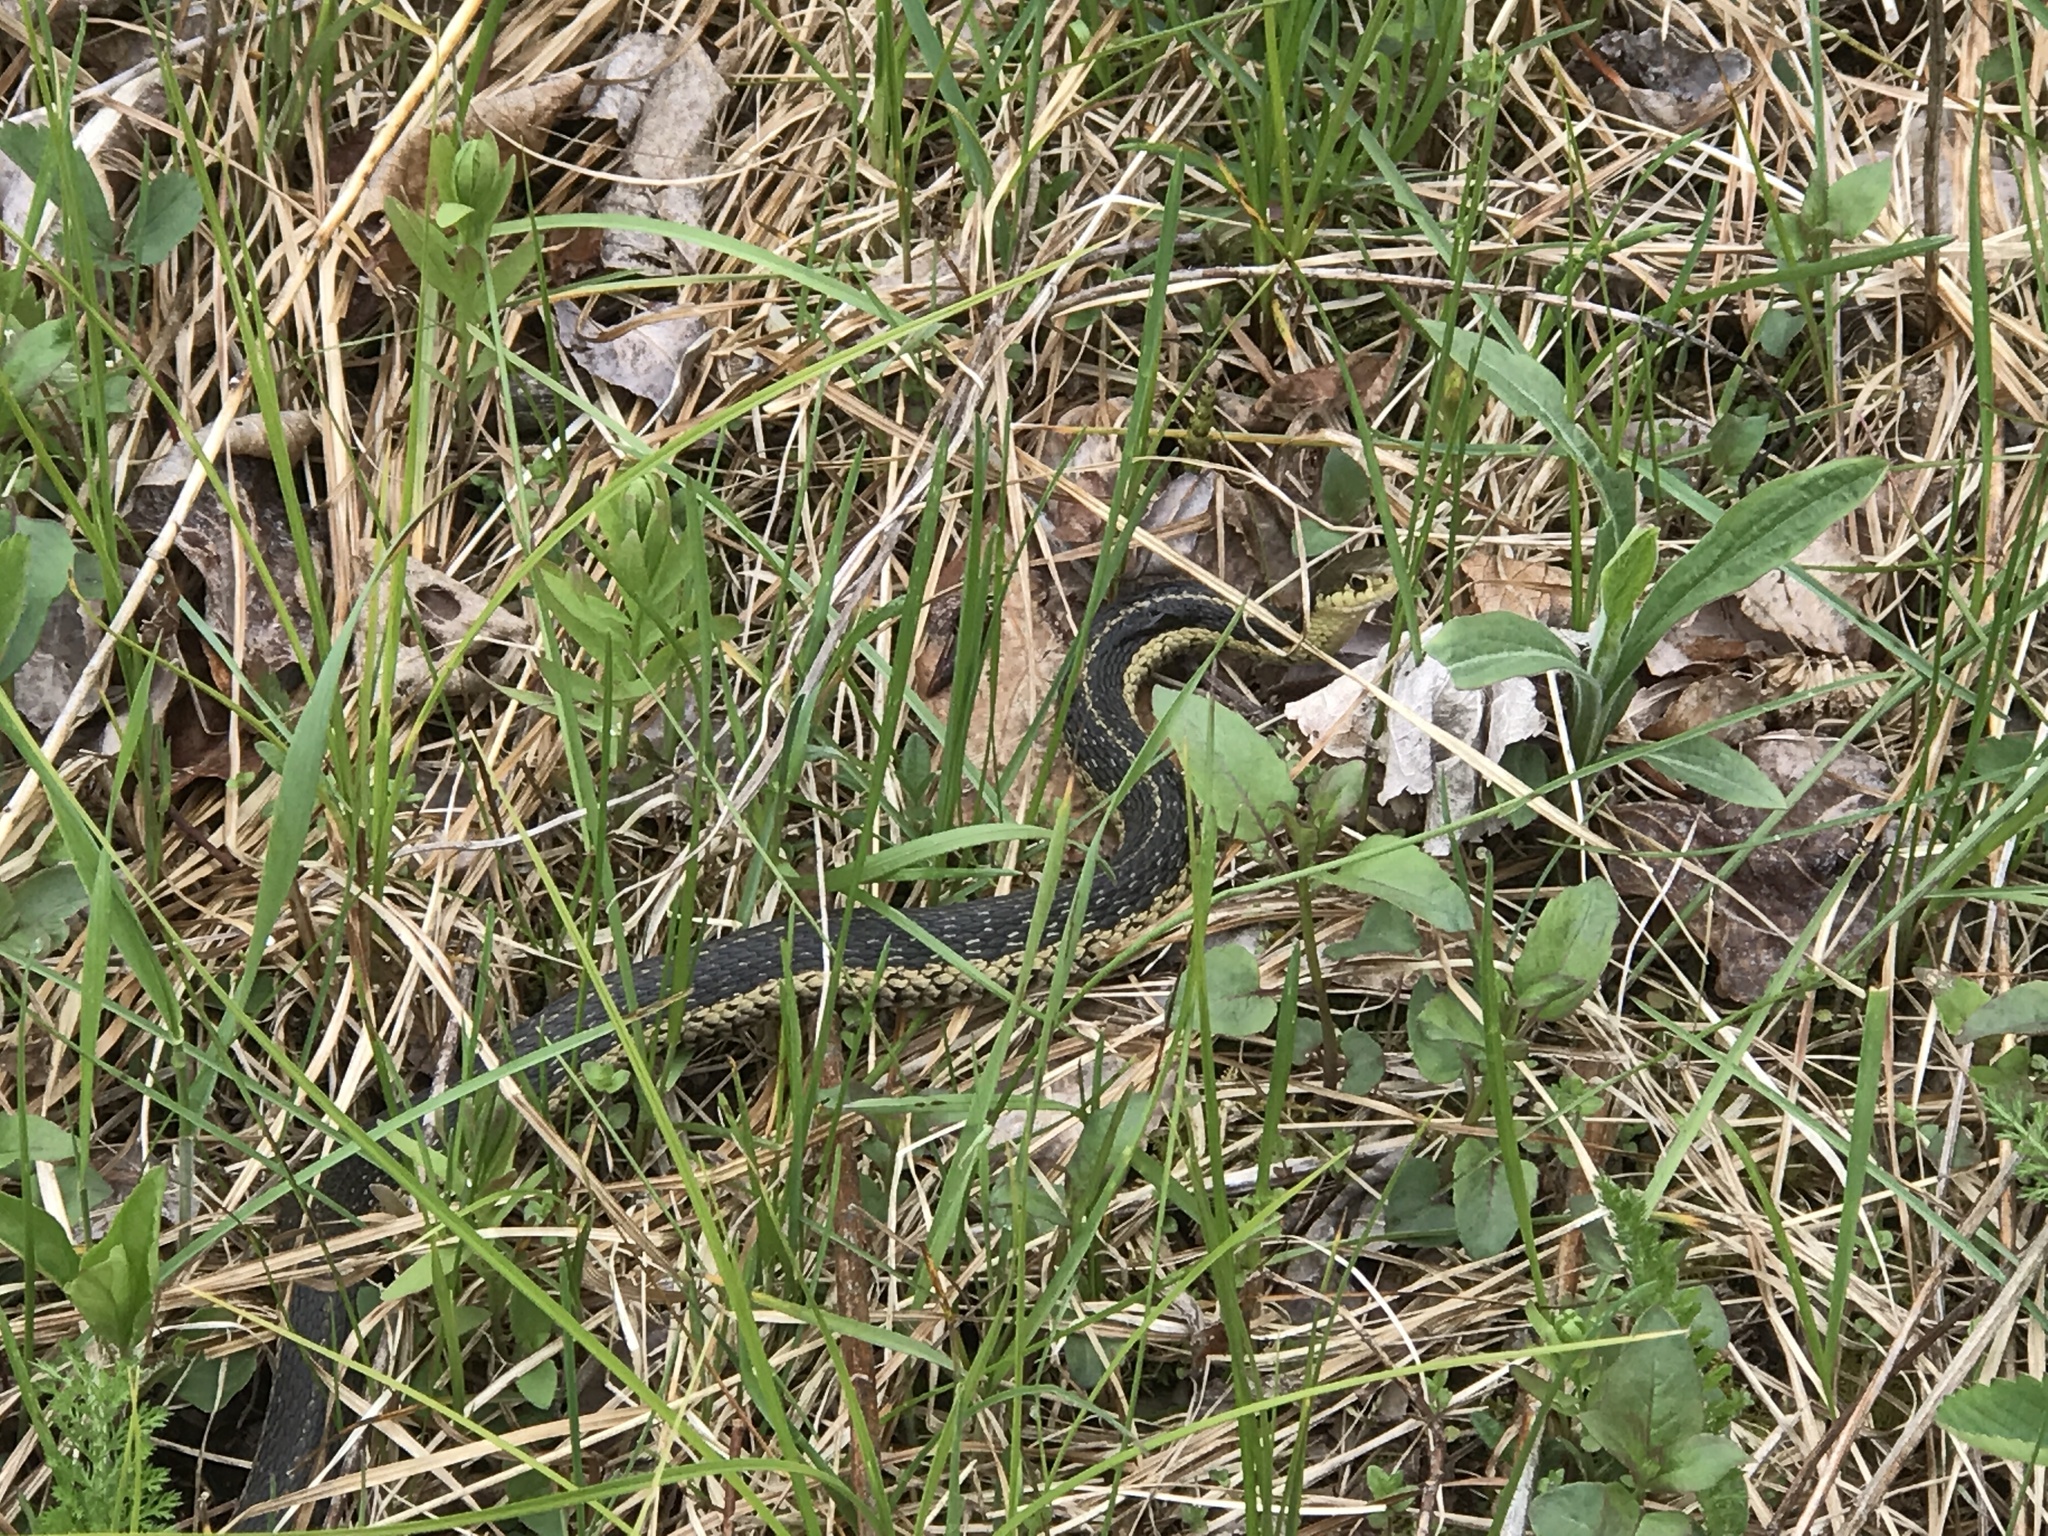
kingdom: Animalia
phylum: Chordata
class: Squamata
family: Colubridae
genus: Thamnophis
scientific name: Thamnophis sirtalis
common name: Common garter snake
